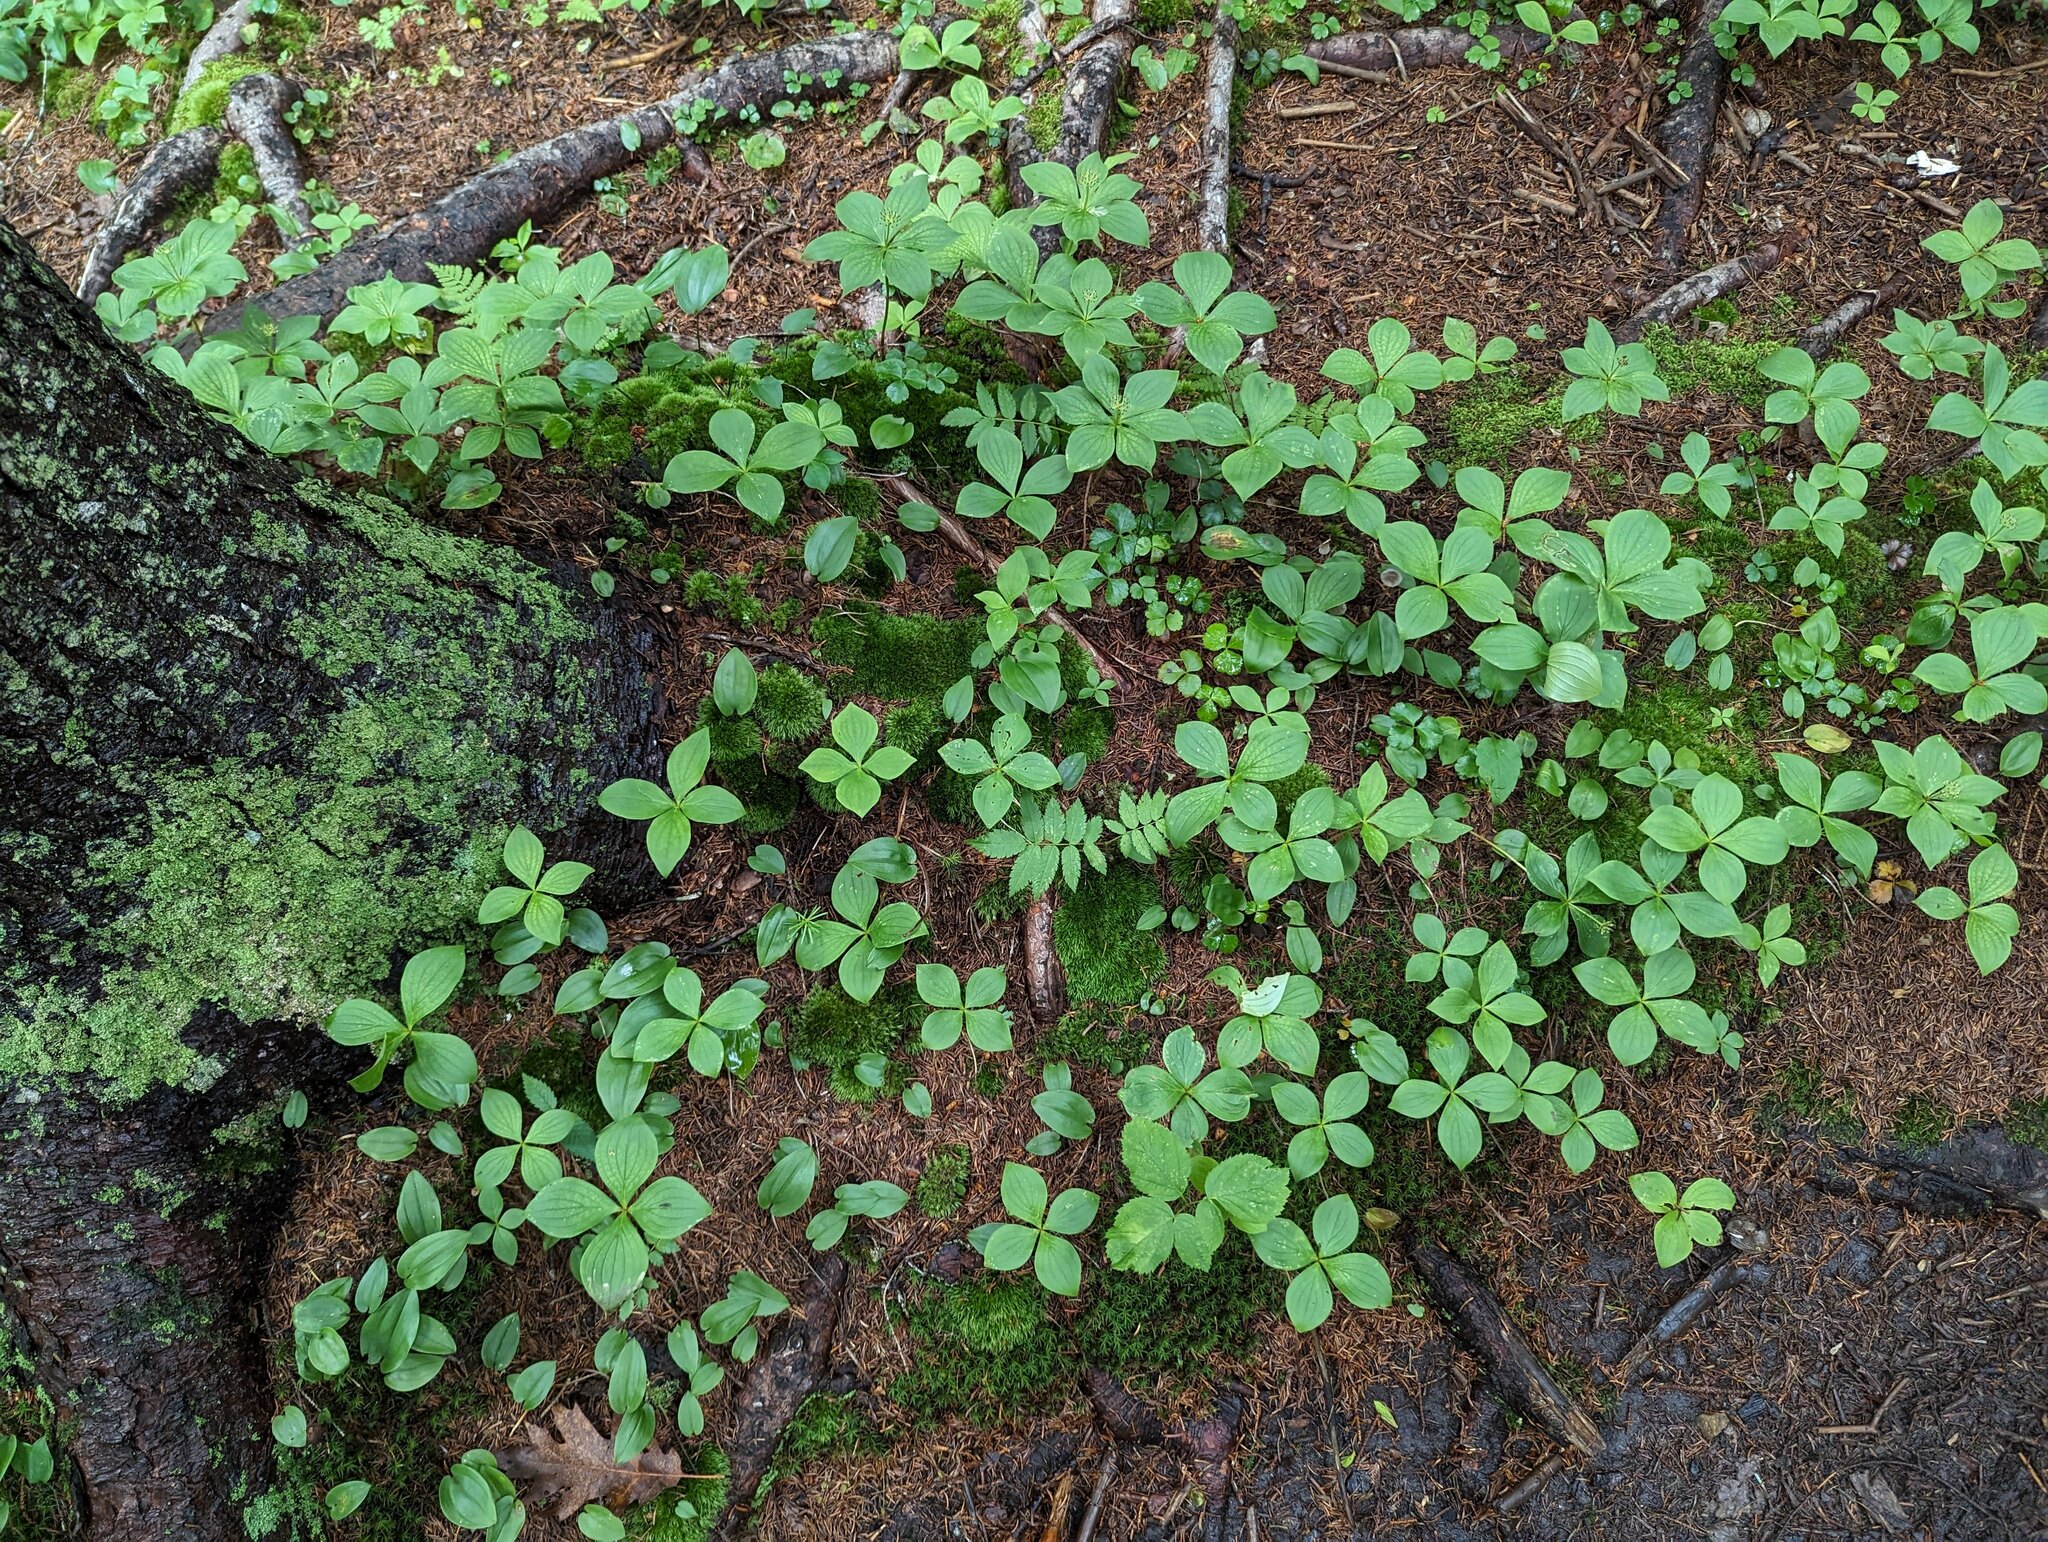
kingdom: Plantae
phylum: Tracheophyta
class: Magnoliopsida
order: Cornales
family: Cornaceae
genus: Cornus
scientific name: Cornus canadensis
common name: Creeping dogwood
